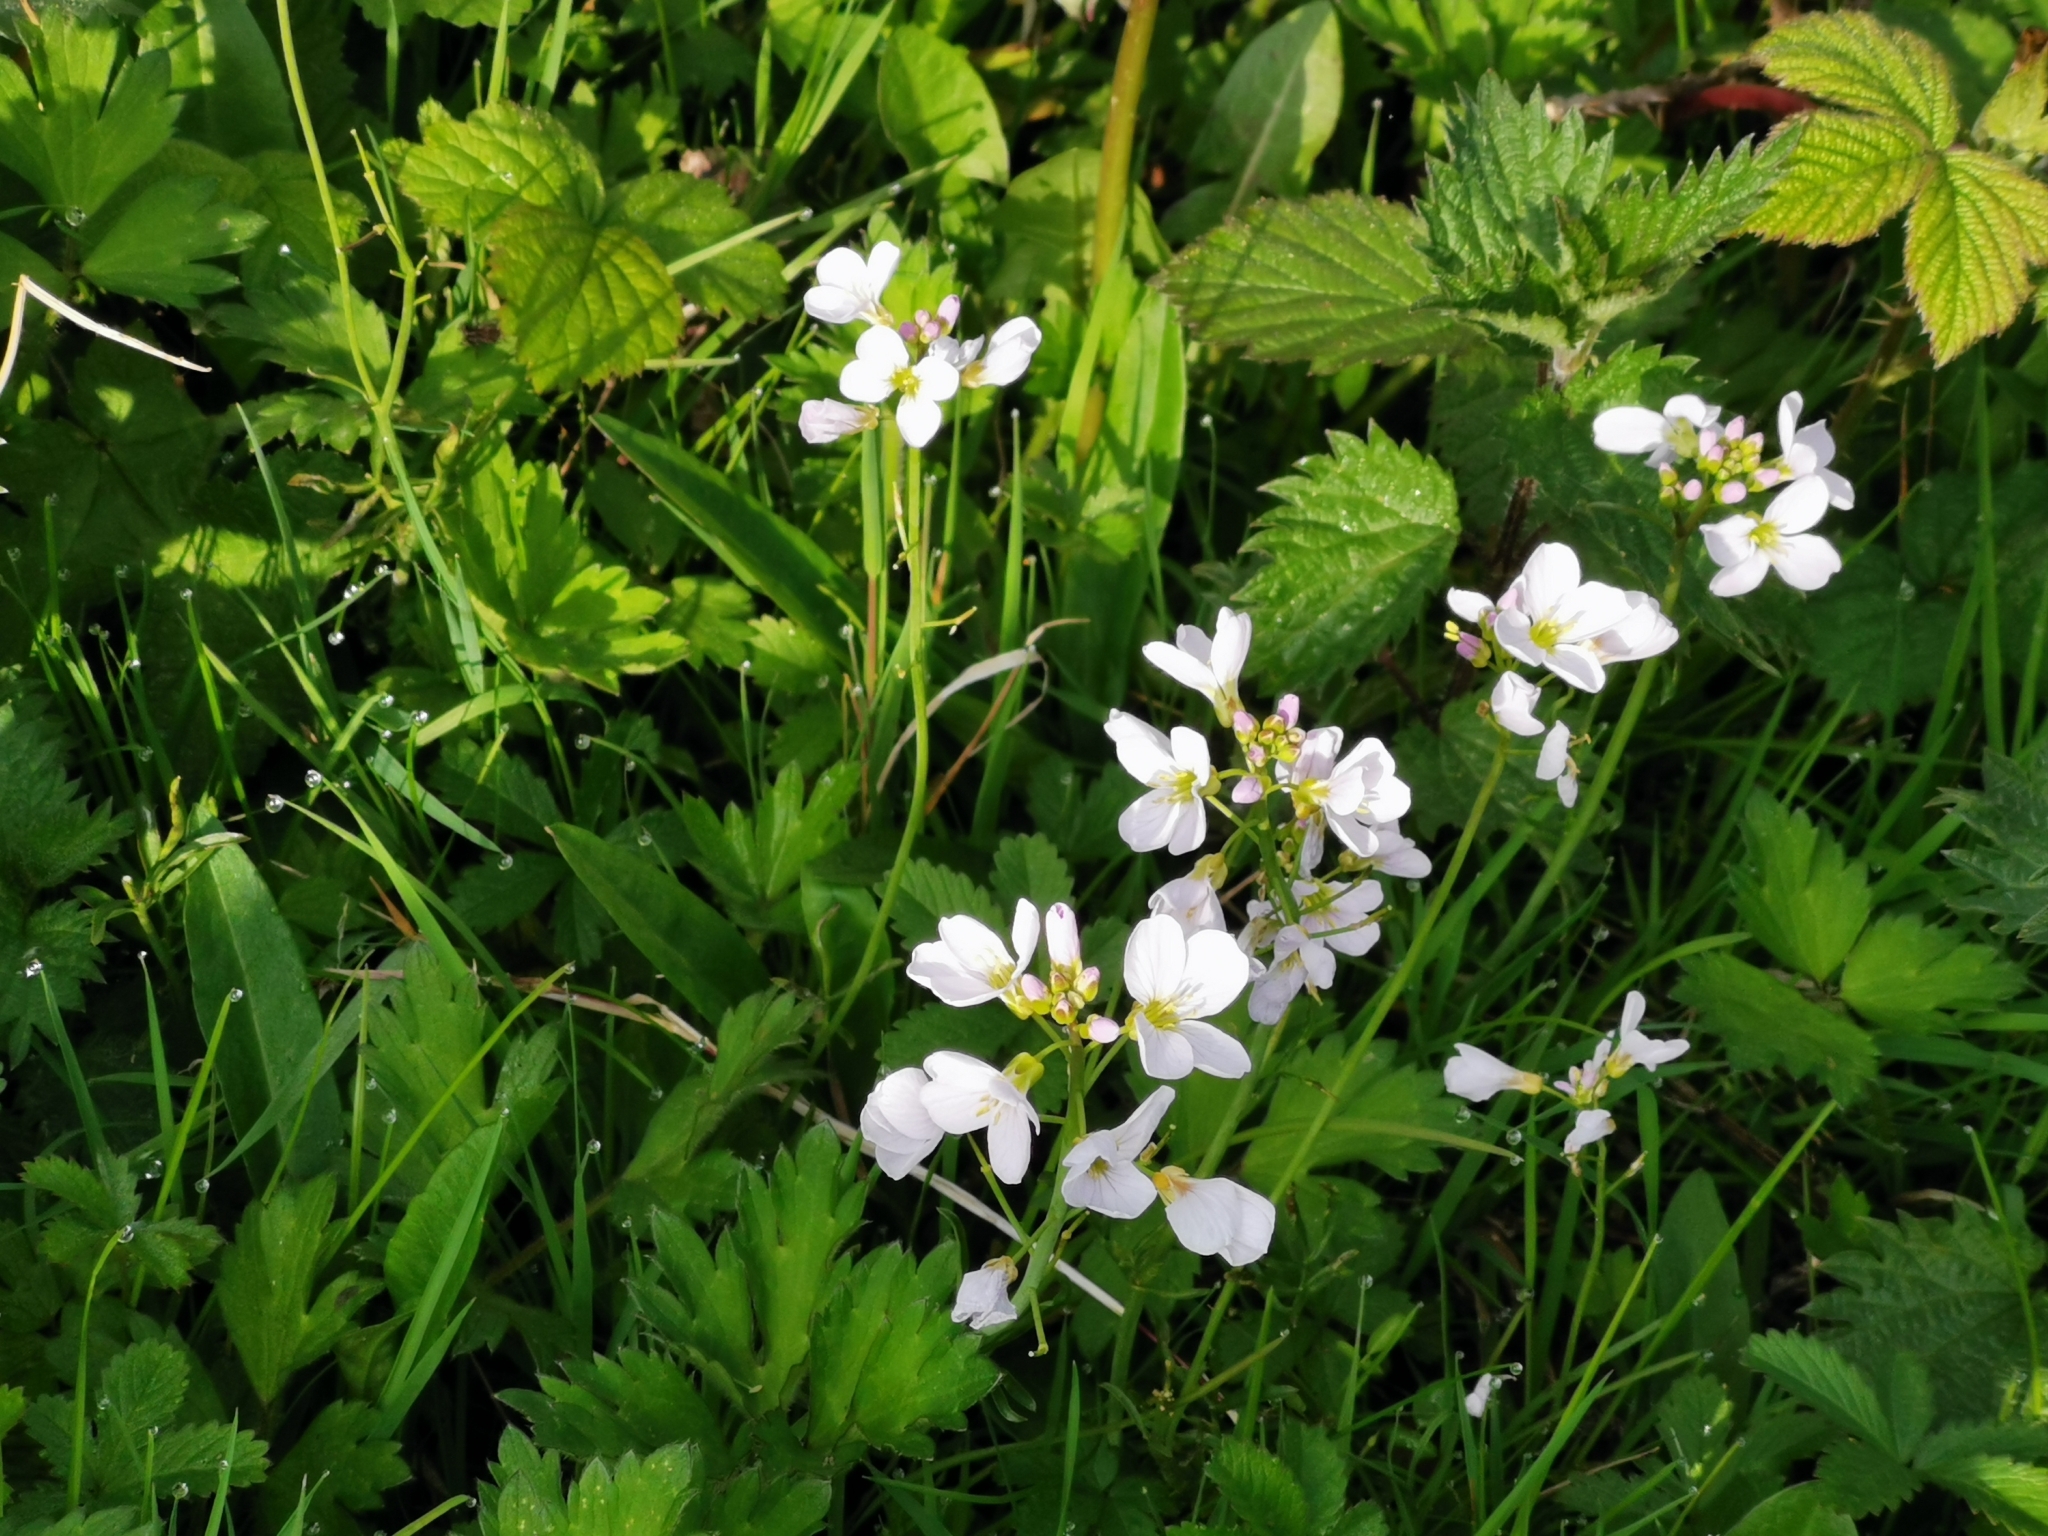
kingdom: Plantae
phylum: Tracheophyta
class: Magnoliopsida
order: Brassicales
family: Brassicaceae
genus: Cardamine
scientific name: Cardamine pratensis
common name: Cuckoo flower
